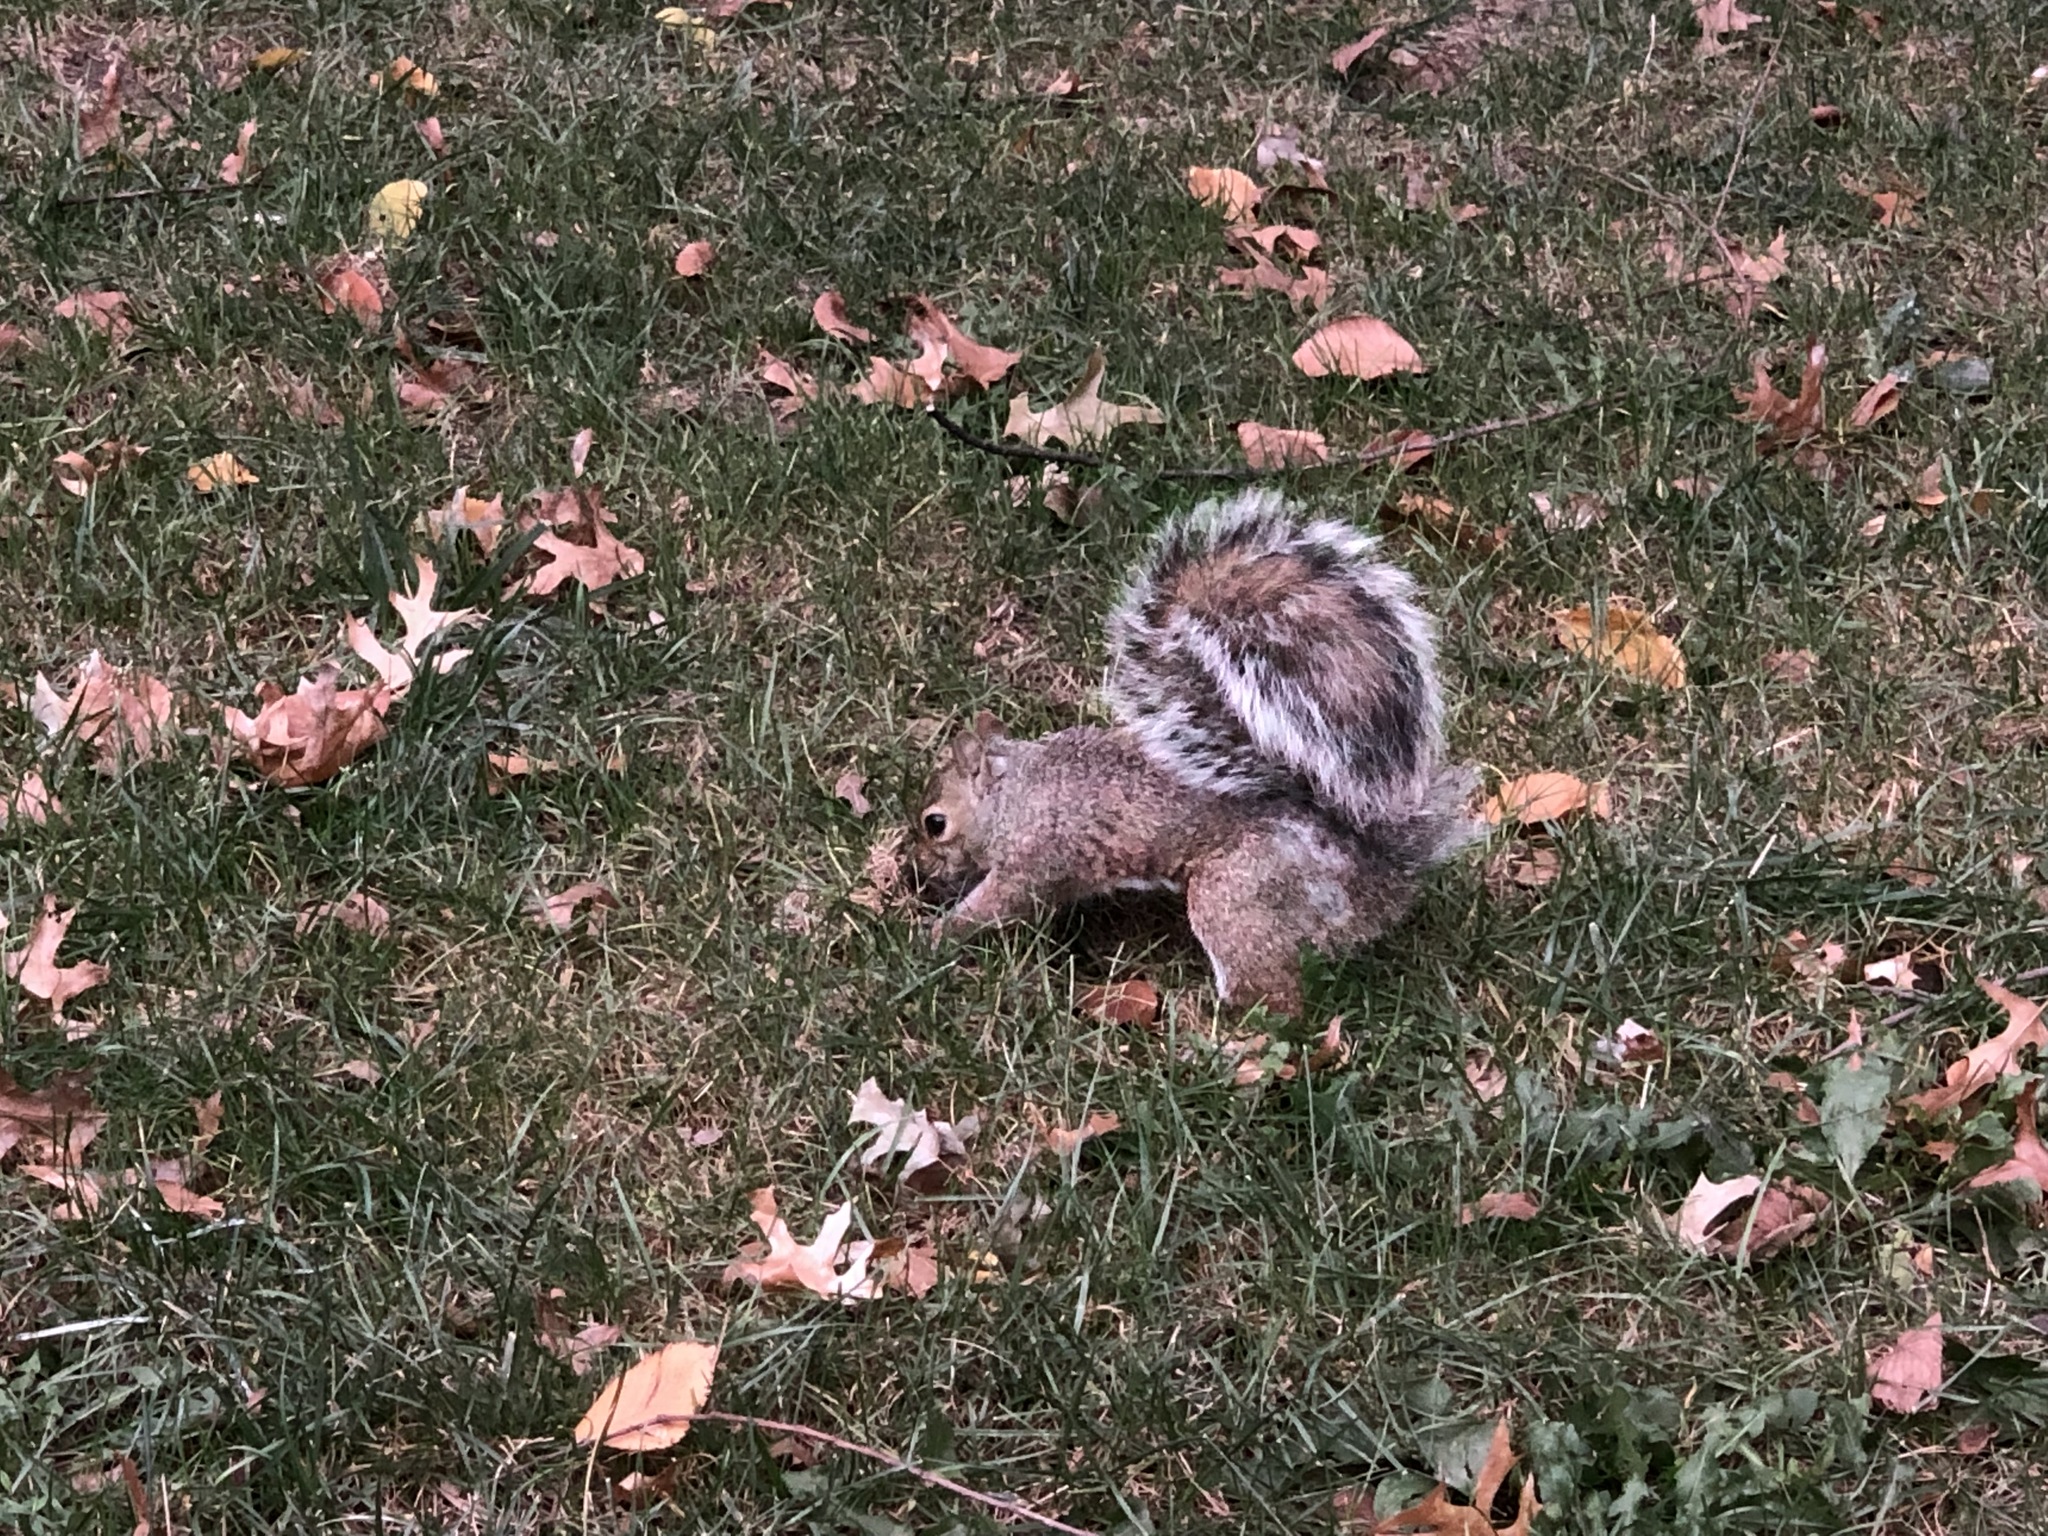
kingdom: Animalia
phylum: Chordata
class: Mammalia
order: Rodentia
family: Sciuridae
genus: Sciurus
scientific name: Sciurus carolinensis
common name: Eastern gray squirrel
